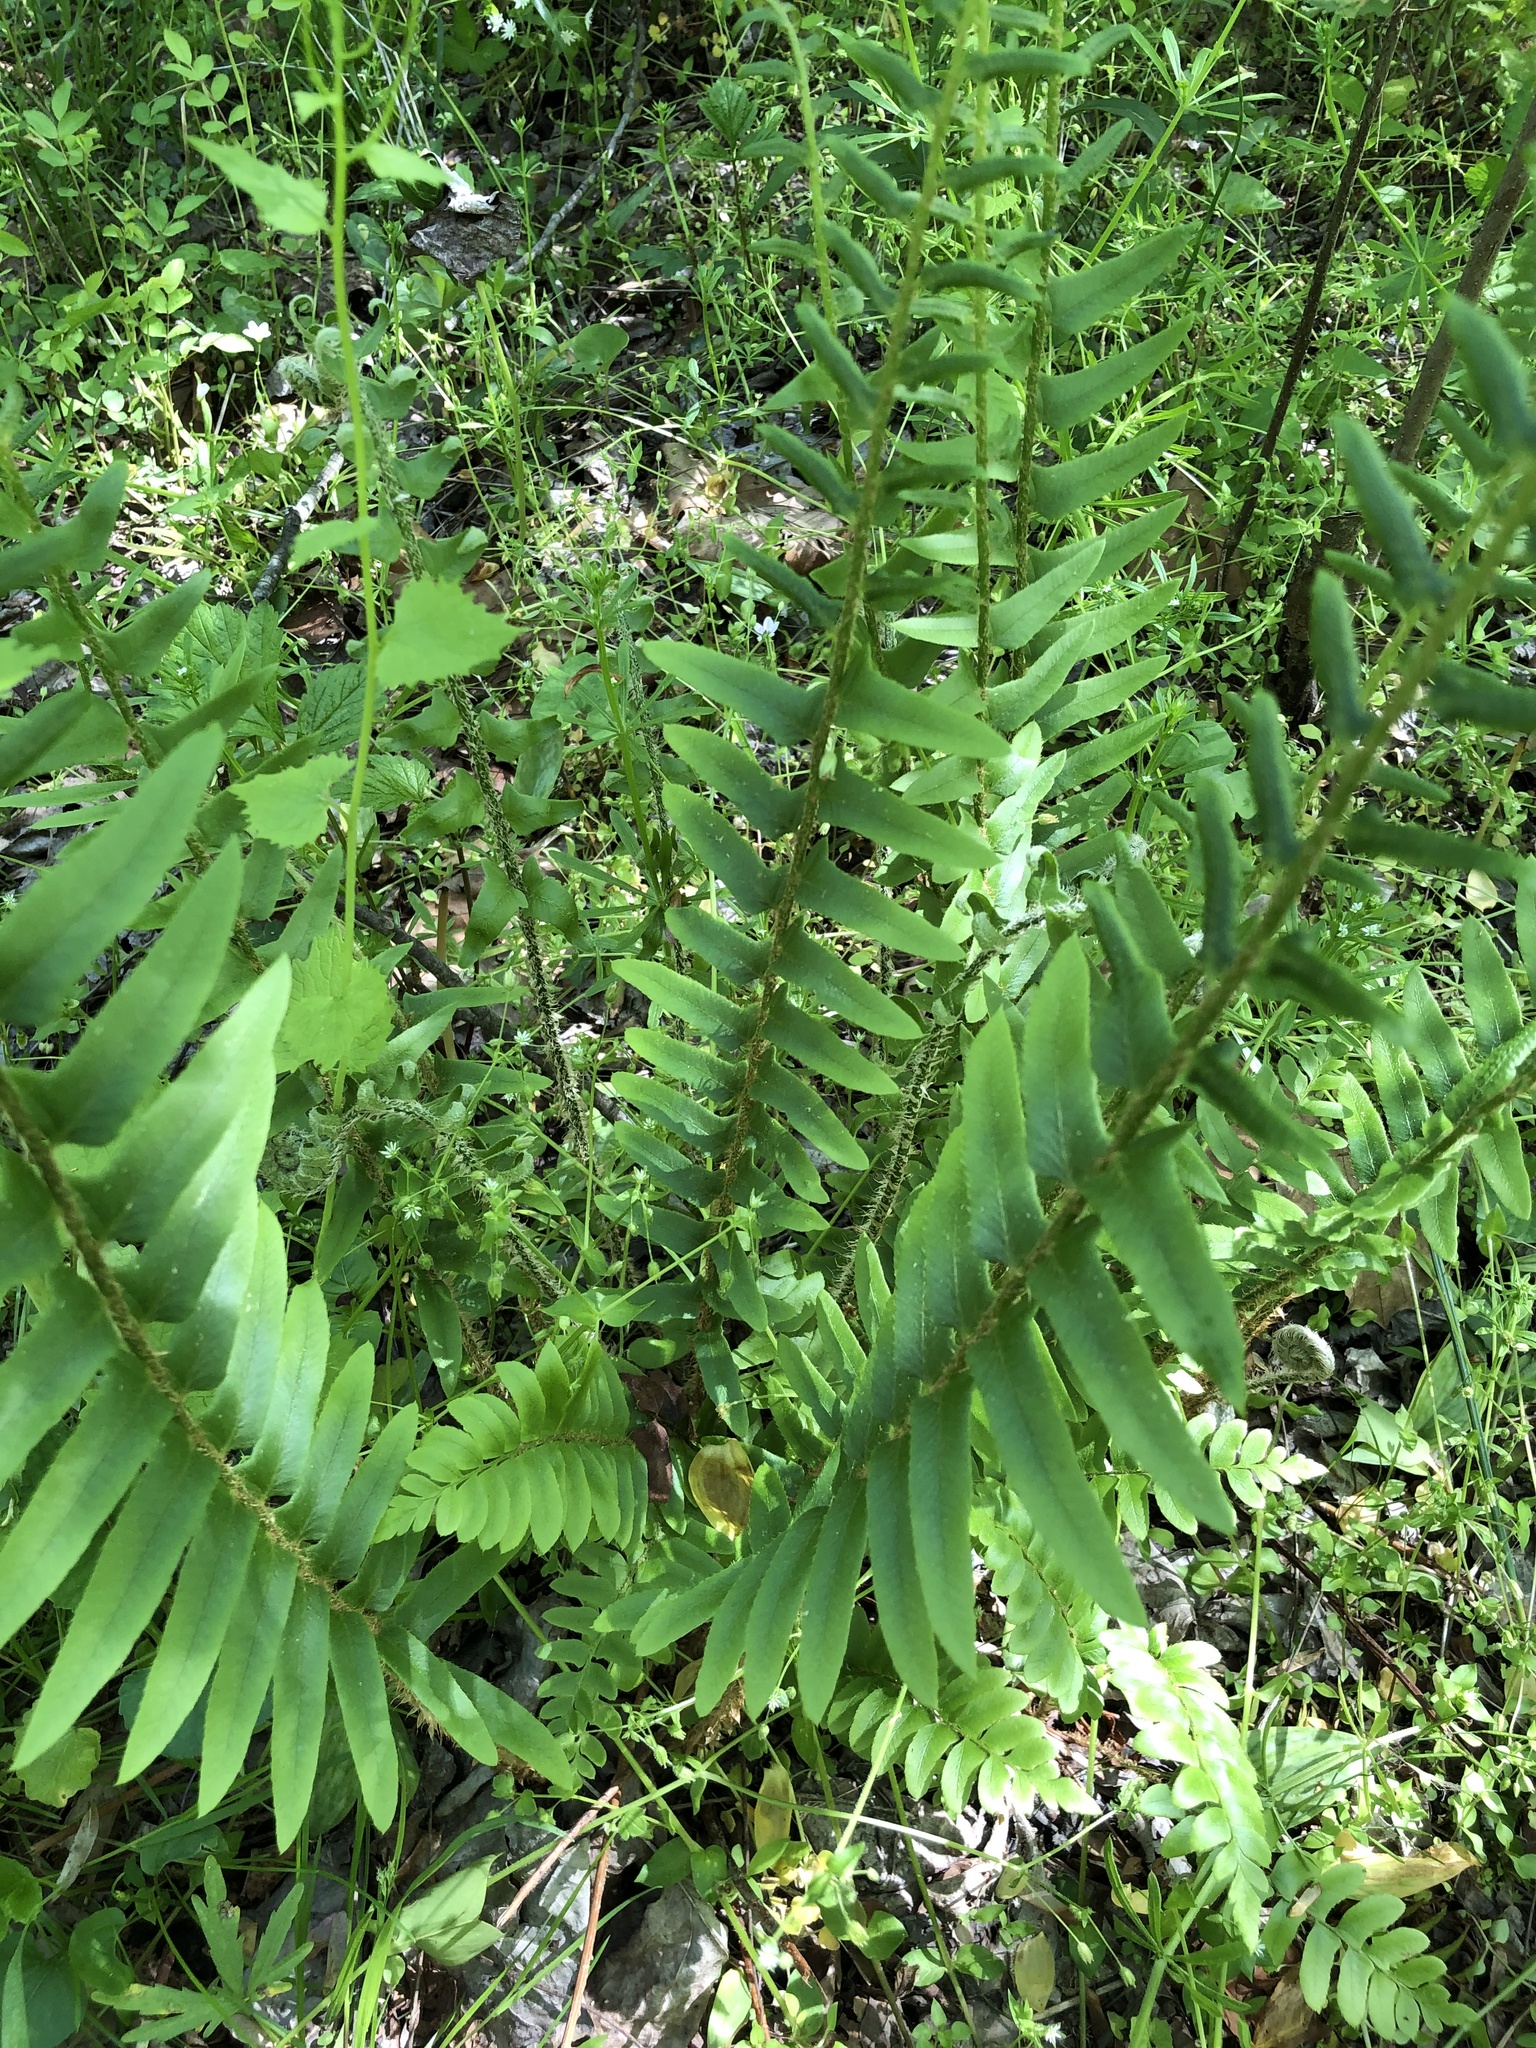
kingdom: Plantae
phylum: Tracheophyta
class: Polypodiopsida
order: Polypodiales
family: Dryopteridaceae
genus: Polystichum
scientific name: Polystichum acrostichoides
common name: Christmas fern
